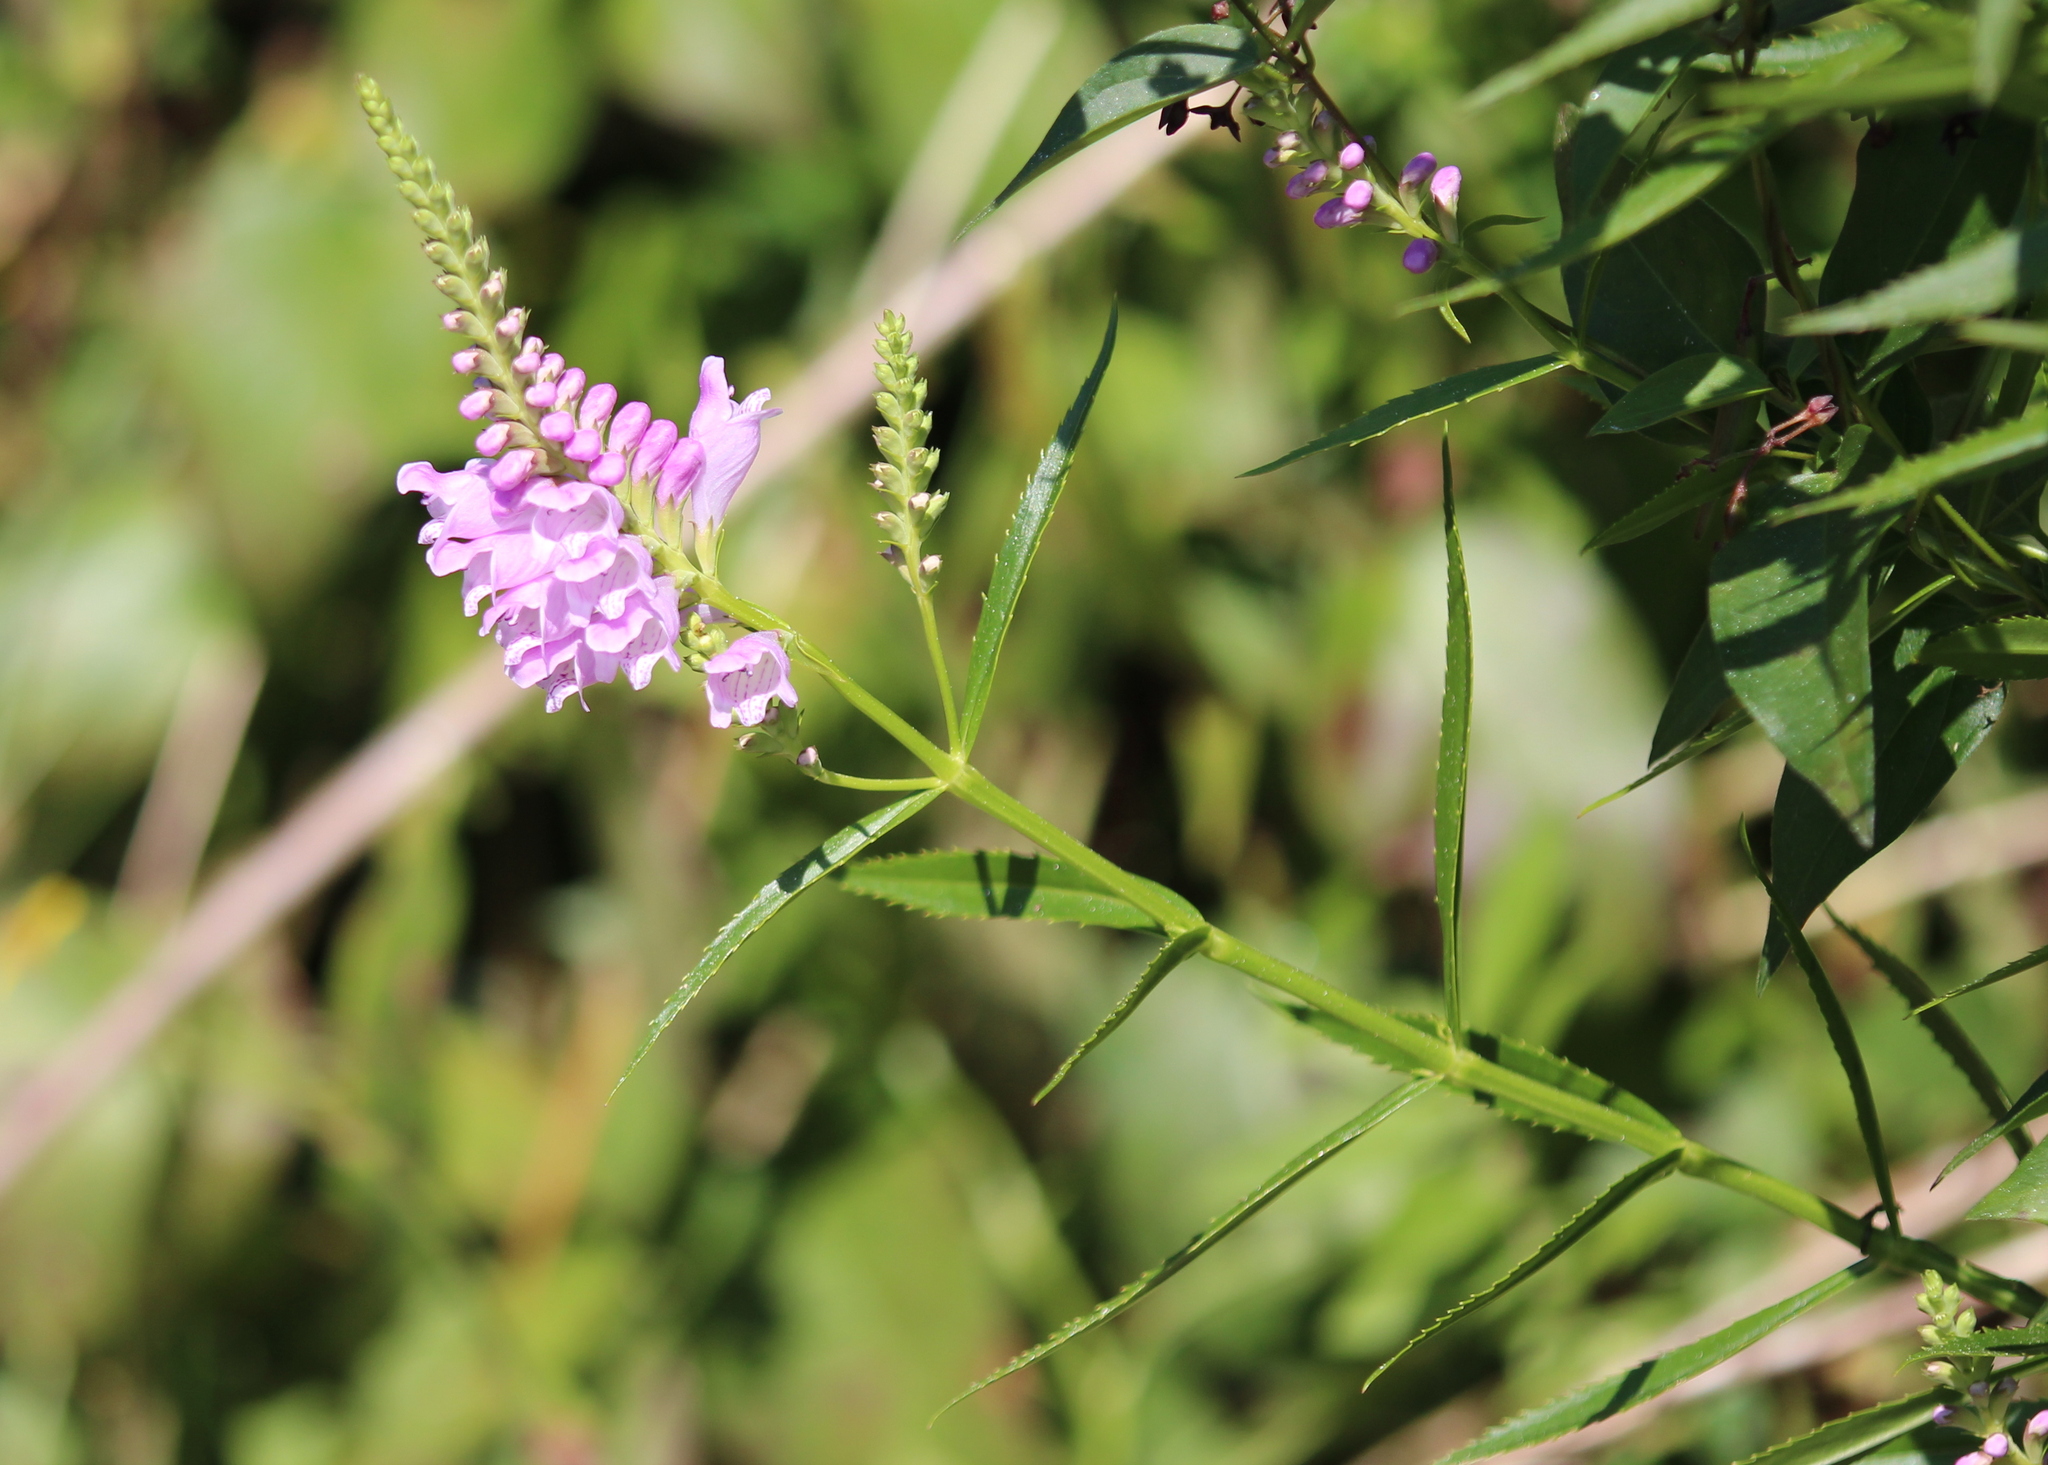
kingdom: Plantae
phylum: Tracheophyta
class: Magnoliopsida
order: Lamiales
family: Lamiaceae
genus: Physostegia
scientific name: Physostegia virginiana
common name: Obedient-plant
